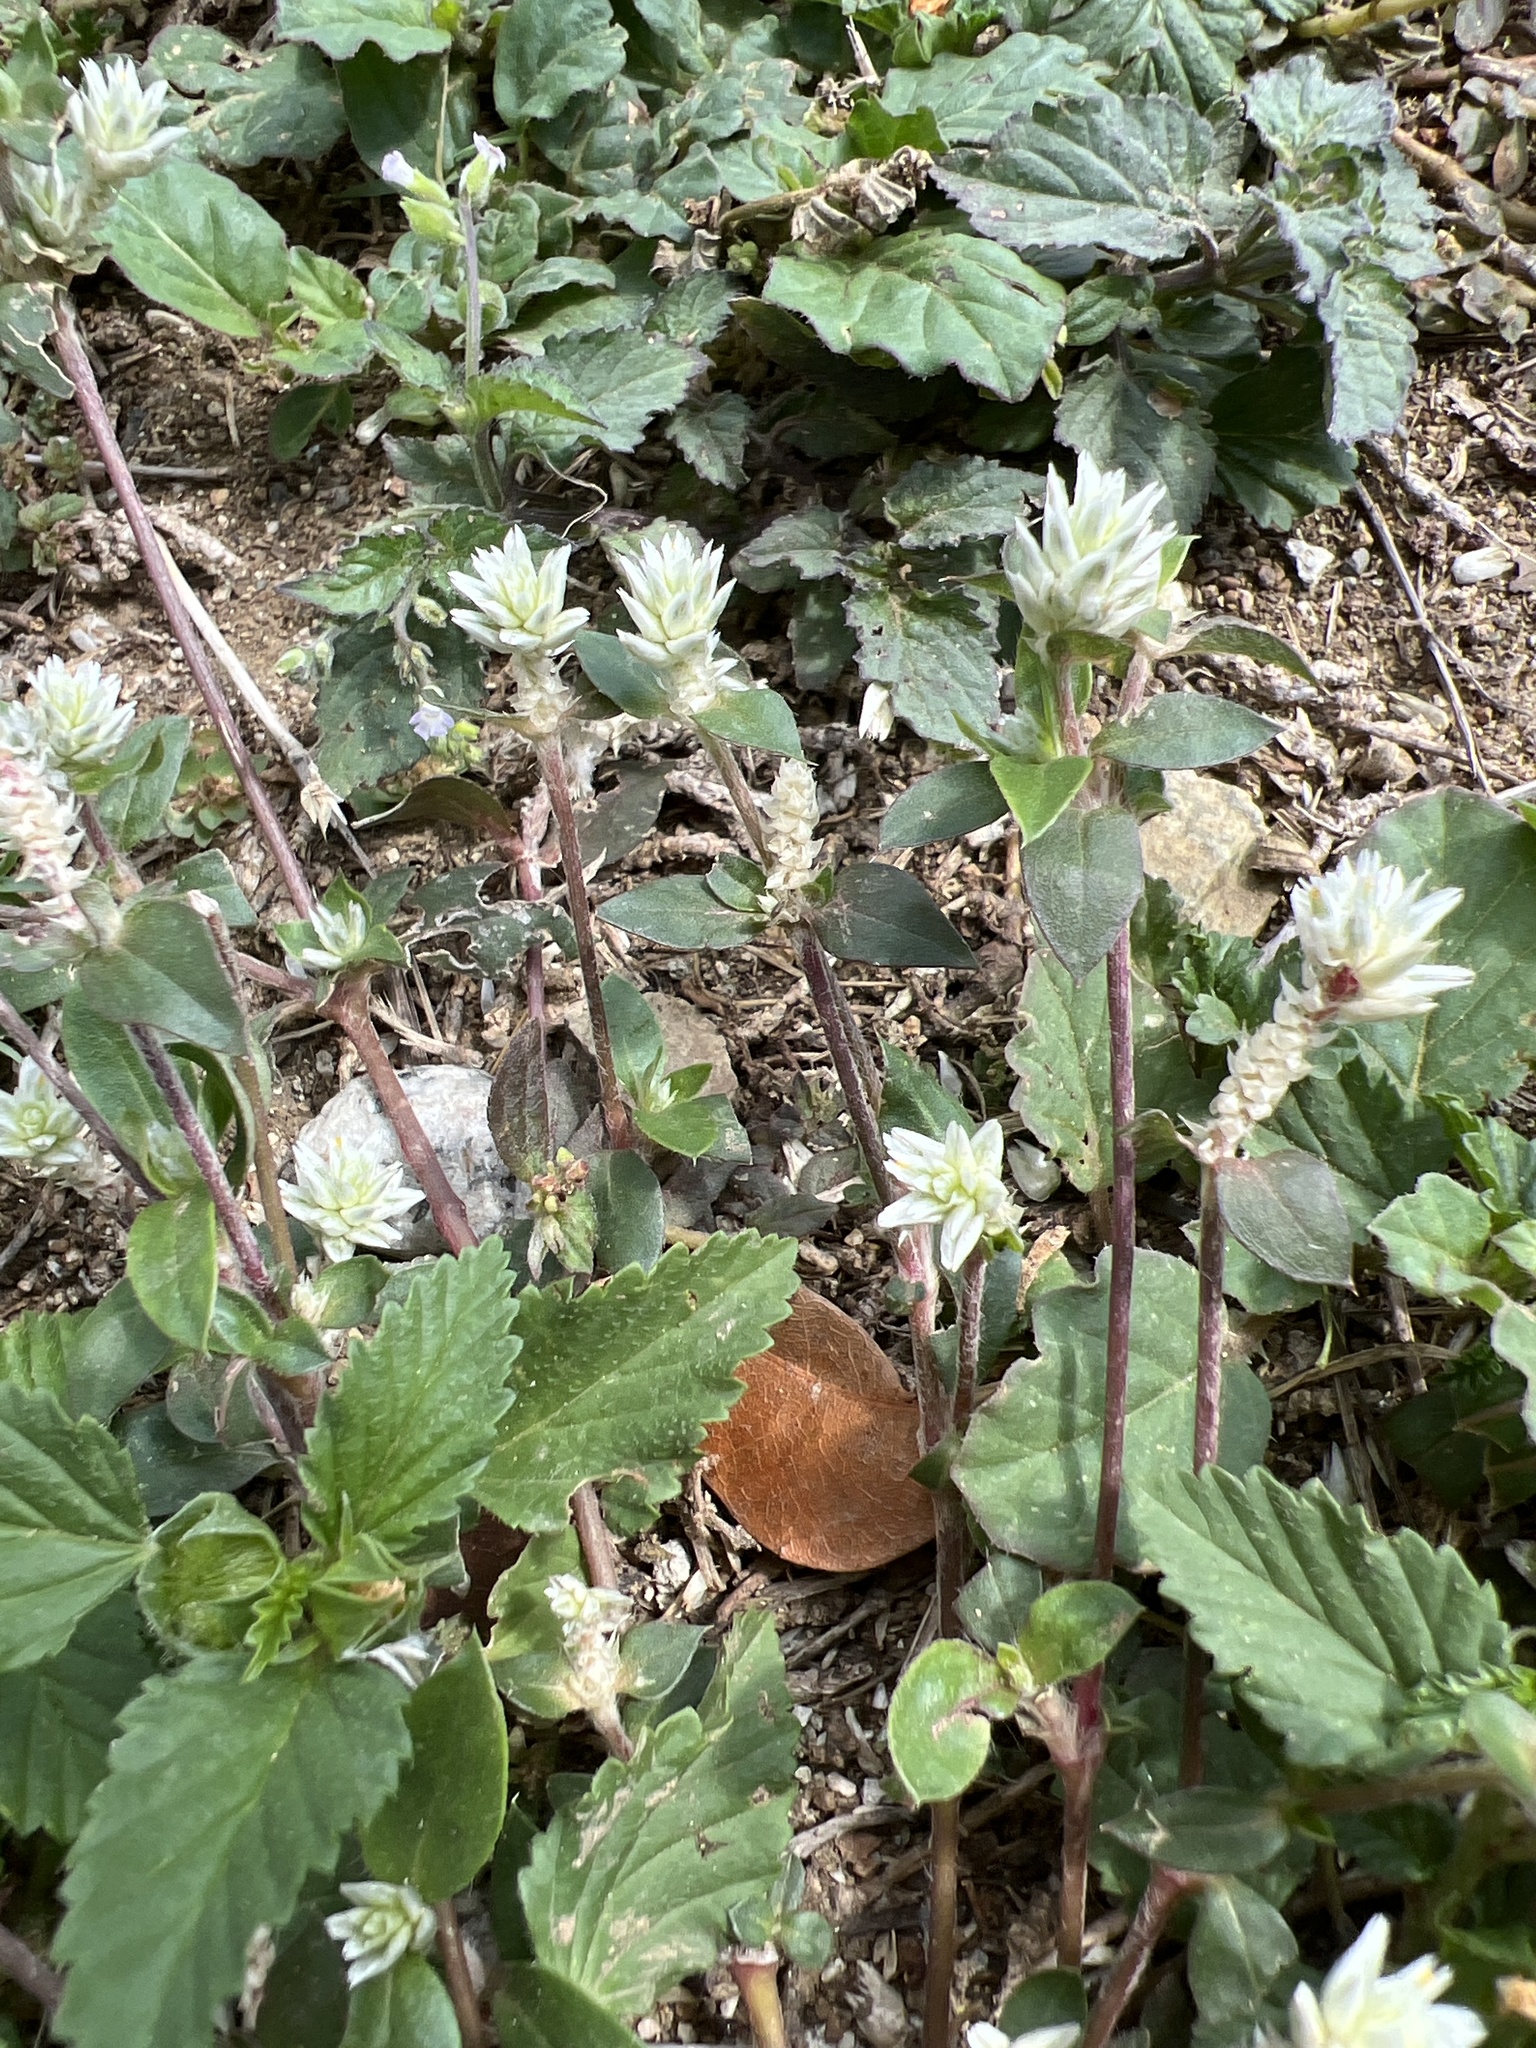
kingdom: Plantae
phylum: Tracheophyta
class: Magnoliopsida
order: Caryophyllales
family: Amaranthaceae
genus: Gomphrena
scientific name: Gomphrena serrata
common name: Arrasa con todo
